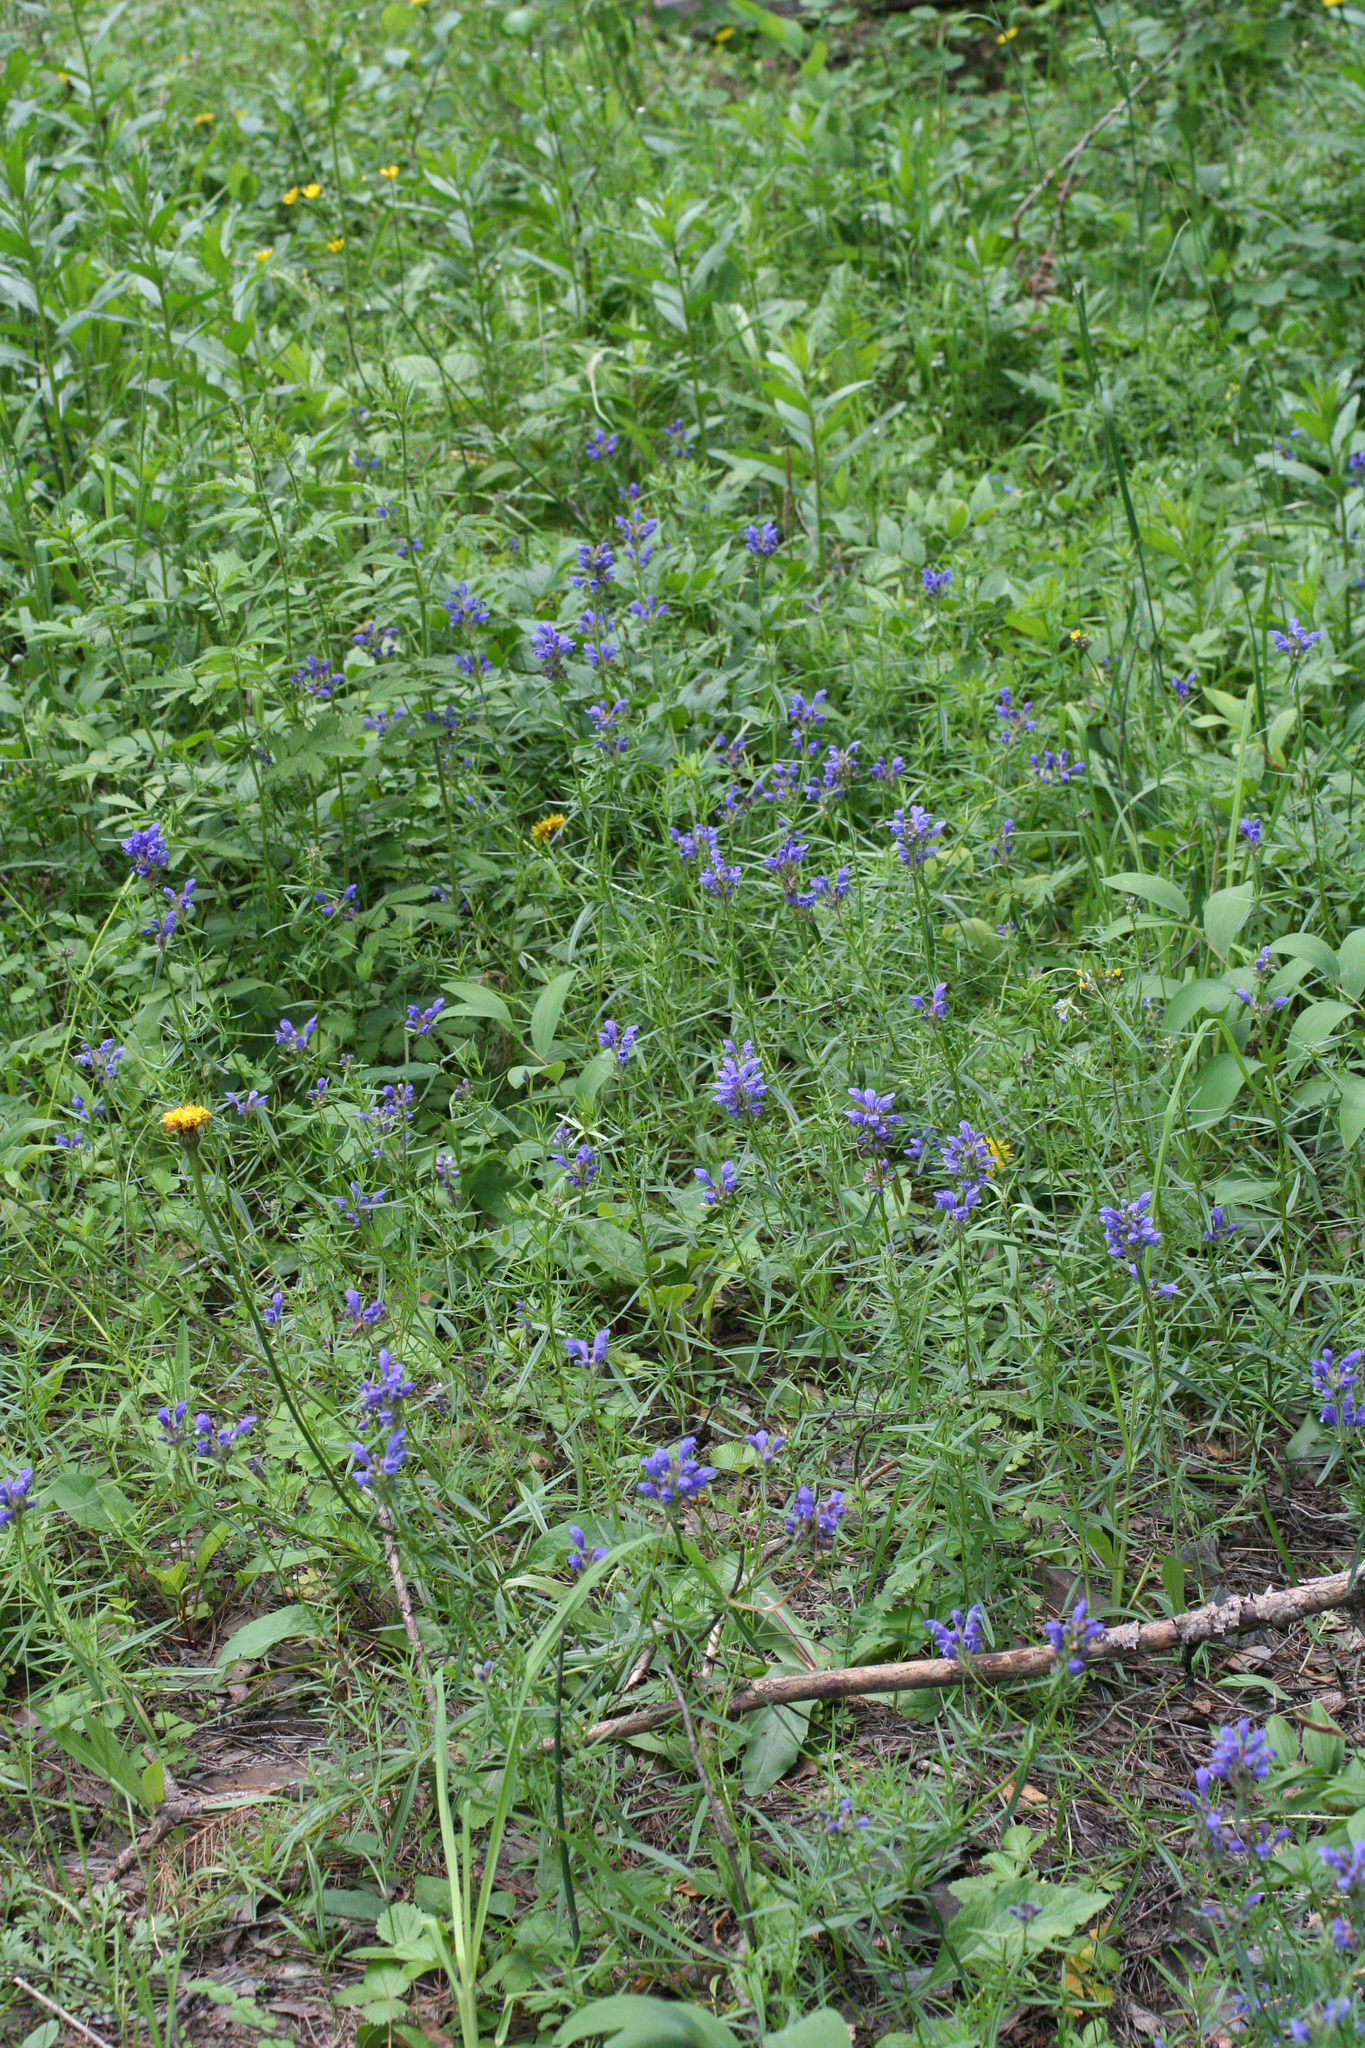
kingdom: Plantae
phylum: Tracheophyta
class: Magnoliopsida
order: Lamiales
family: Lamiaceae
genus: Dracocephalum
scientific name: Dracocephalum ruyschiana
